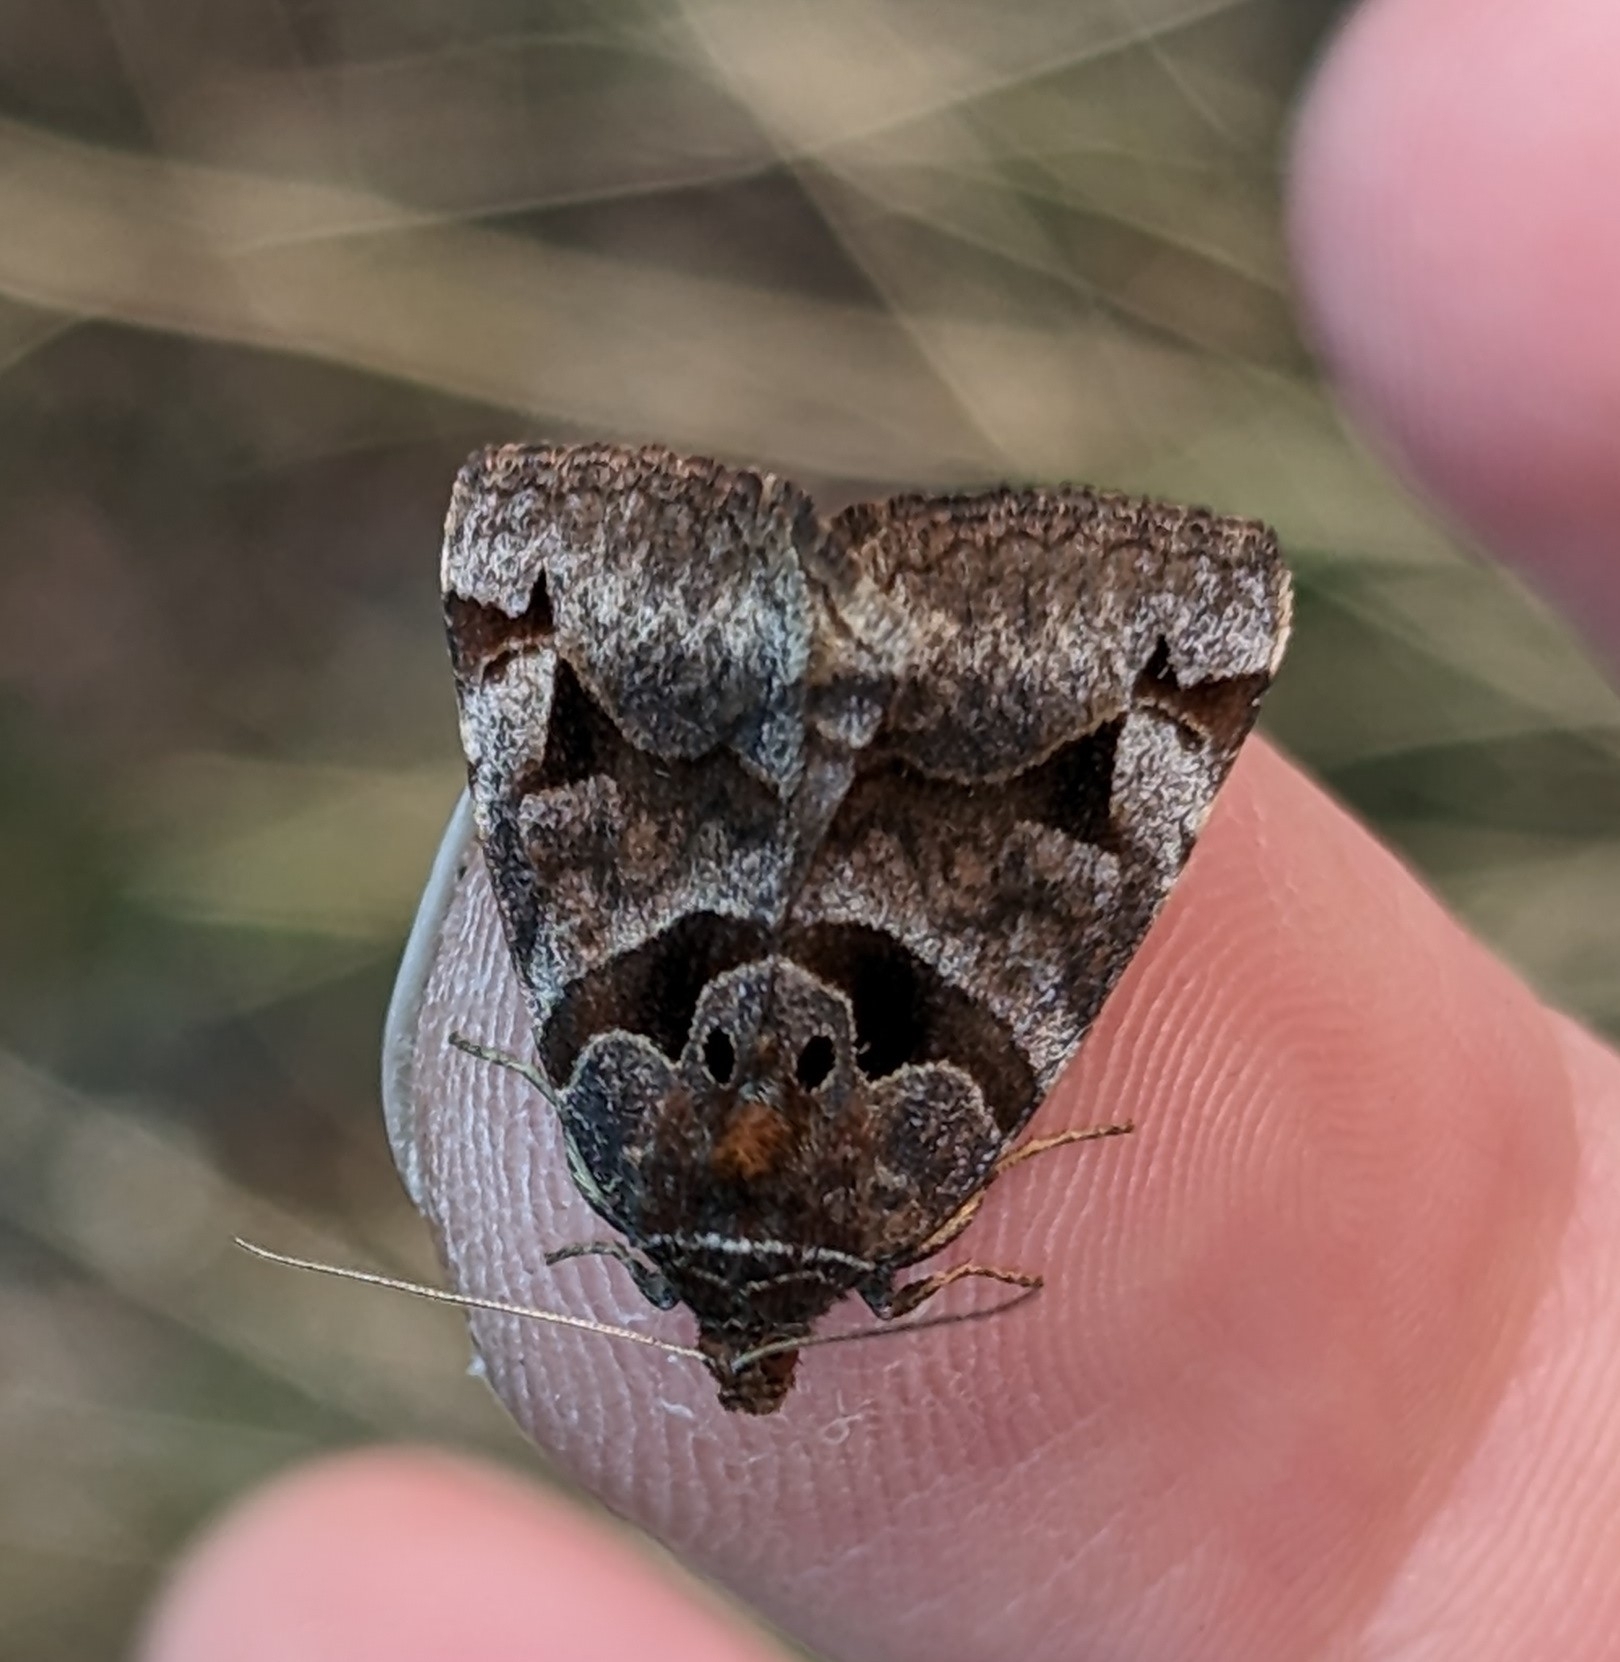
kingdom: Animalia
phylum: Arthropoda
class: Insecta
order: Lepidoptera
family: Erebidae
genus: Euclidia
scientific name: Euclidia cuspidea
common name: Toothed somberwing
